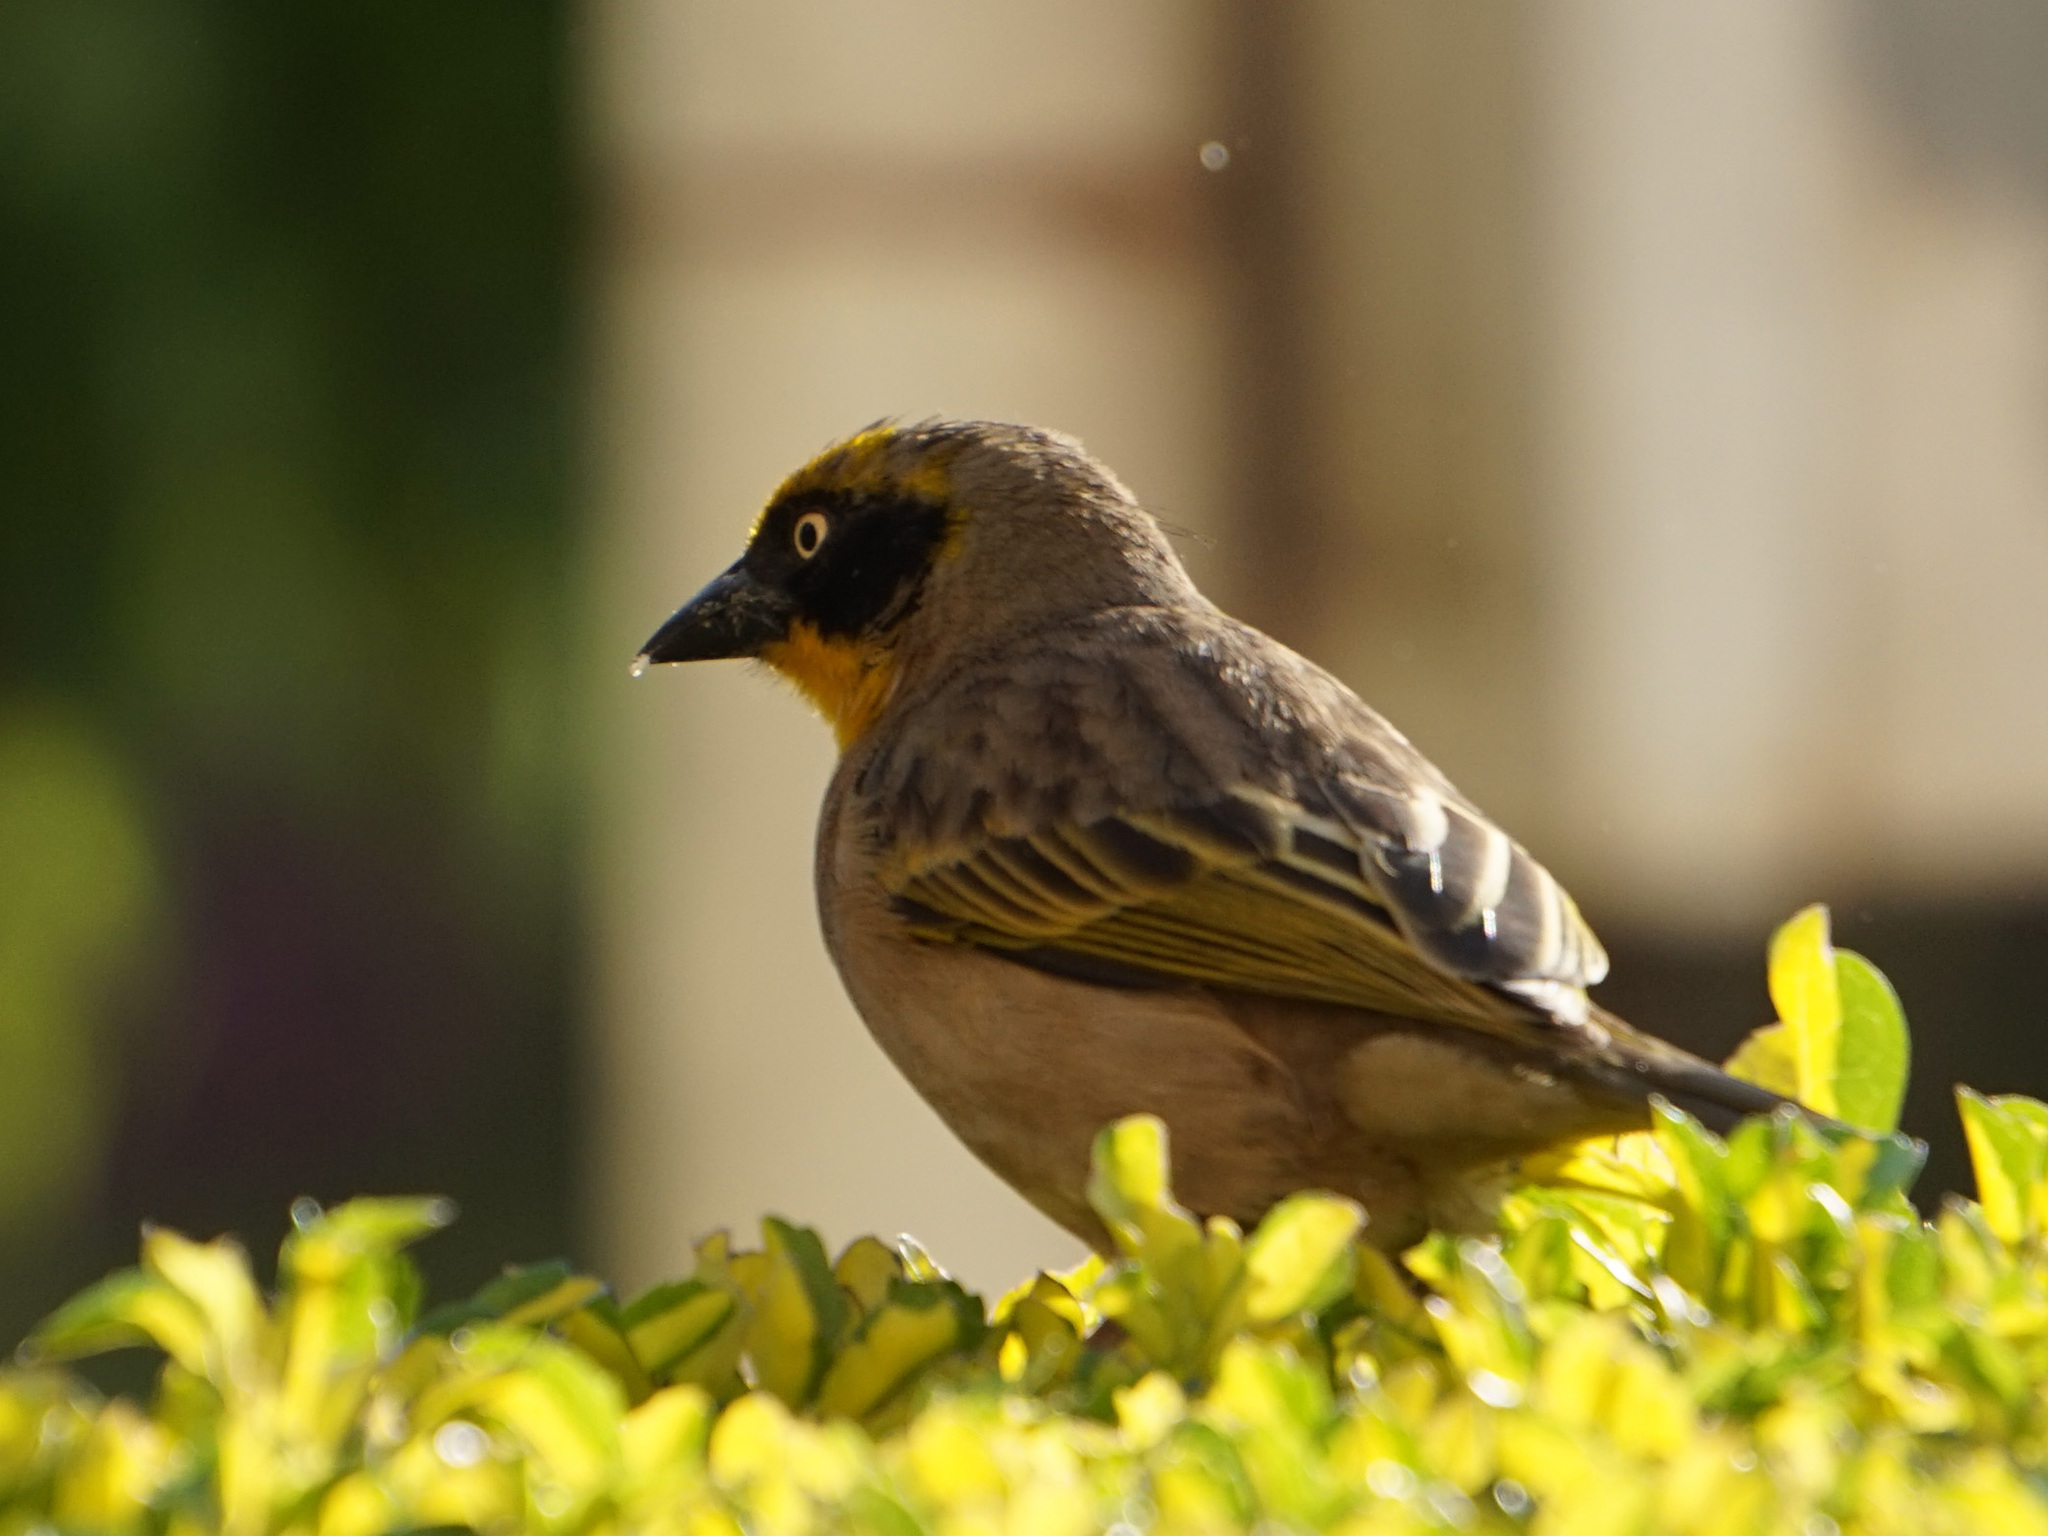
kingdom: Animalia
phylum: Chordata
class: Aves
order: Passeriformes
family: Ploceidae
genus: Ploceus
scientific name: Ploceus baglafecht
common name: Baglafecht weaver
